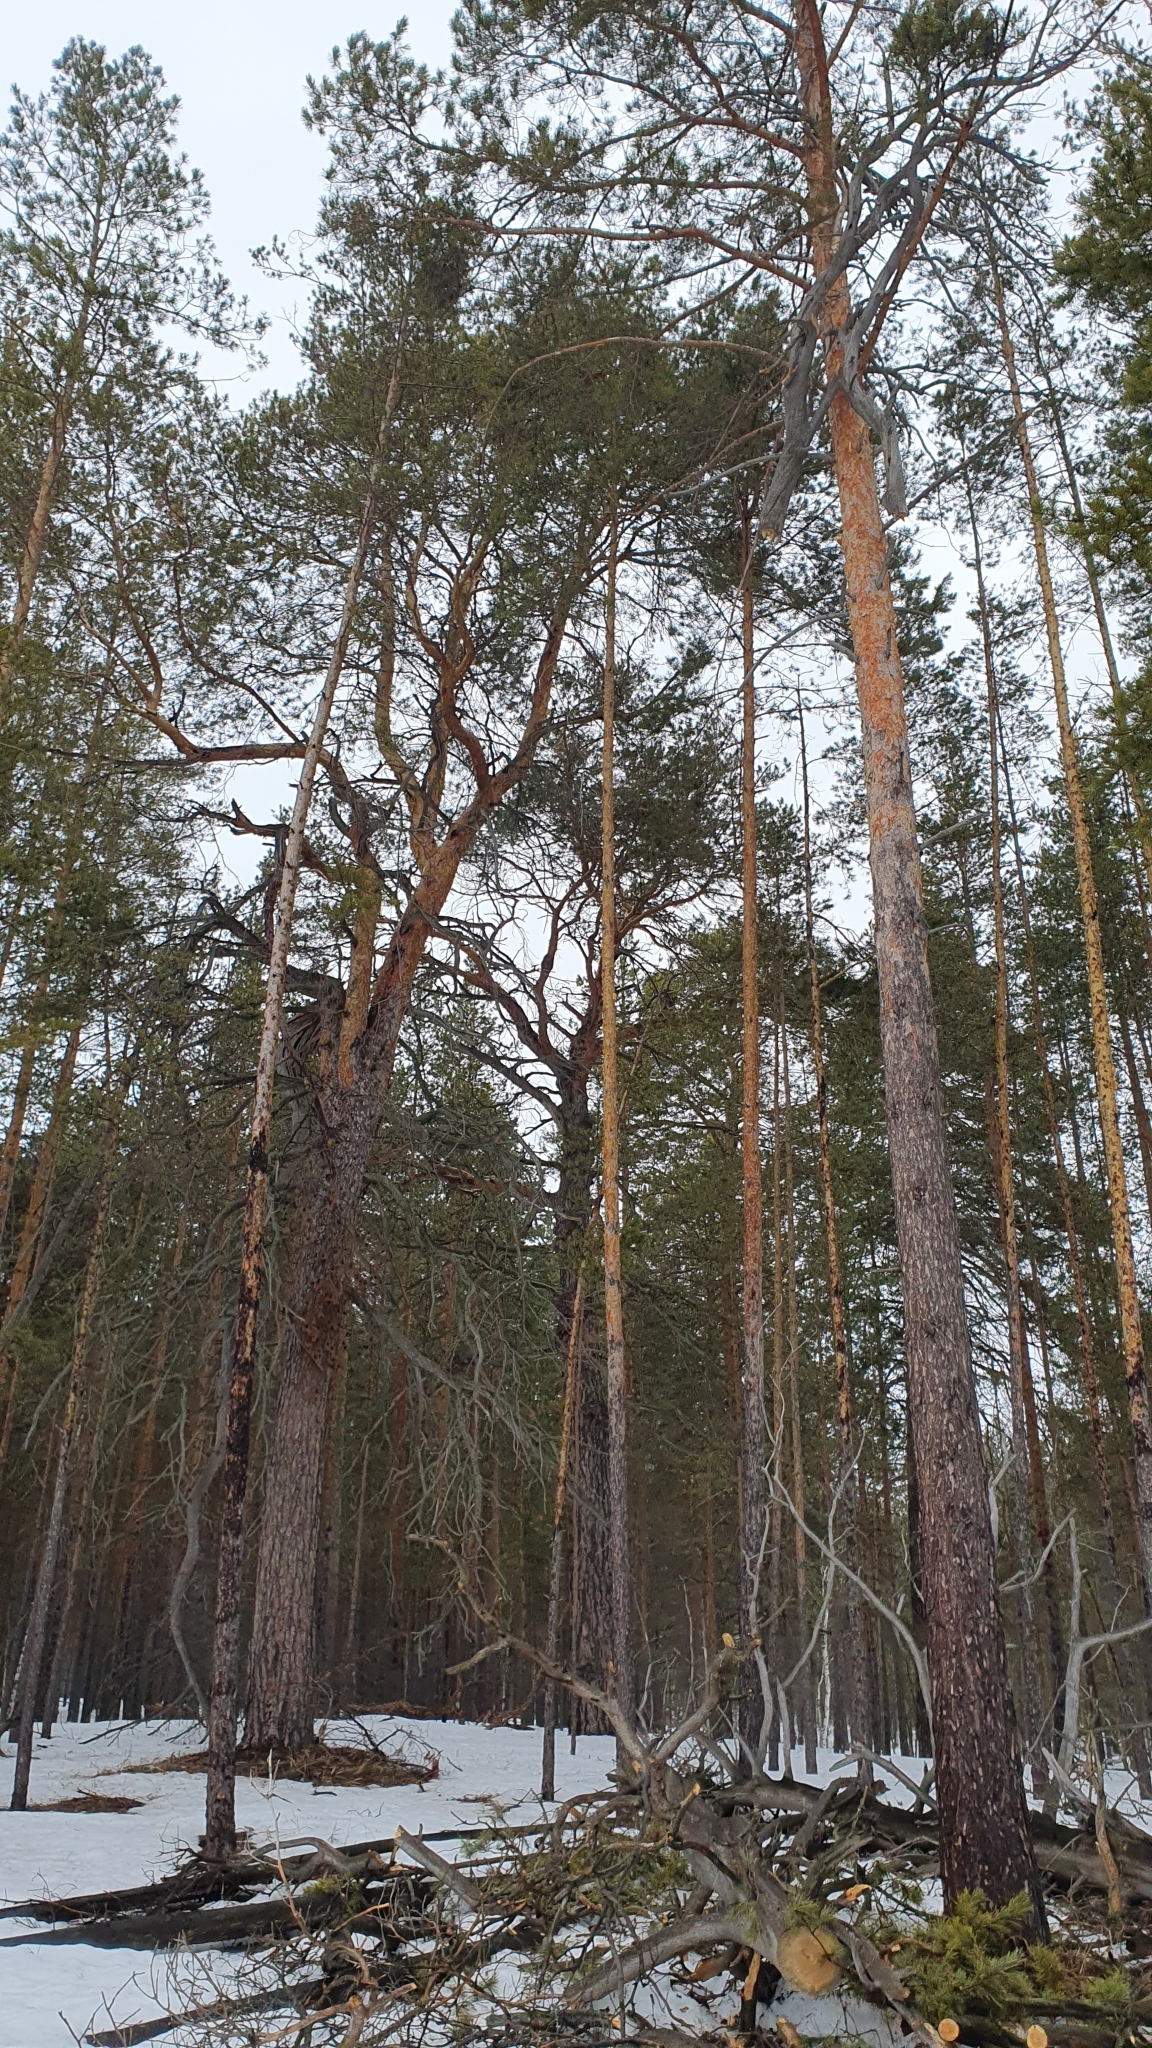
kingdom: Plantae
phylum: Tracheophyta
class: Pinopsida
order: Pinales
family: Pinaceae
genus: Pinus
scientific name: Pinus sylvestris
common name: Scots pine
